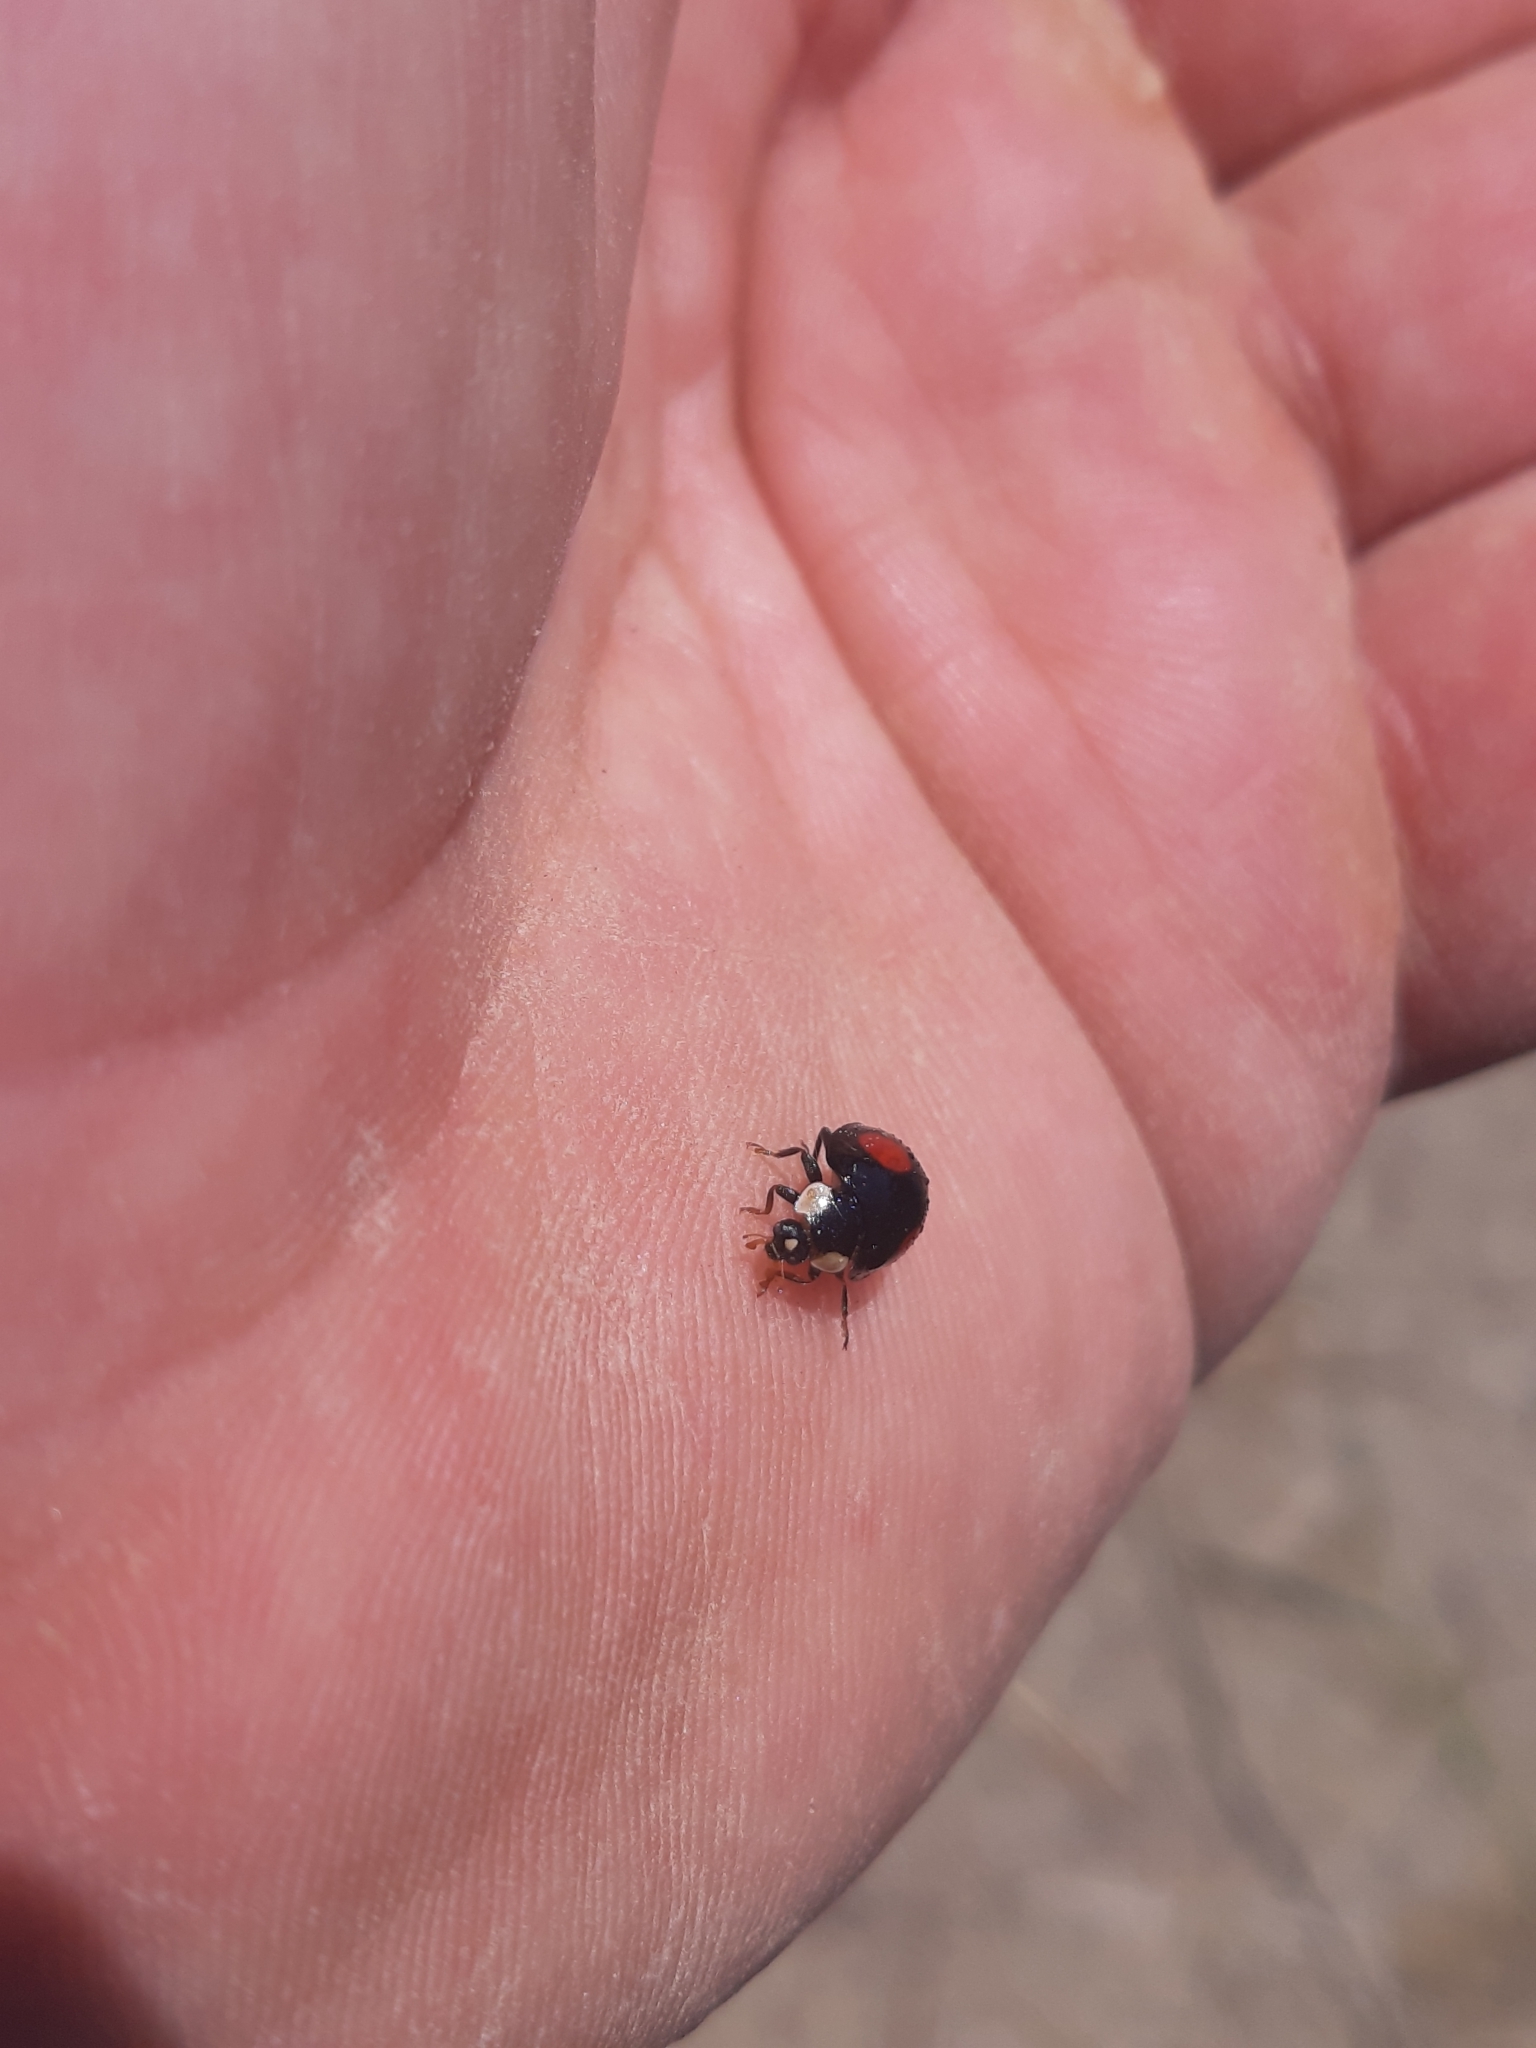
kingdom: Animalia
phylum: Arthropoda
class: Insecta
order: Coleoptera
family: Coccinellidae
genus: Harmonia
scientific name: Harmonia axyridis
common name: Harlequin ladybird
